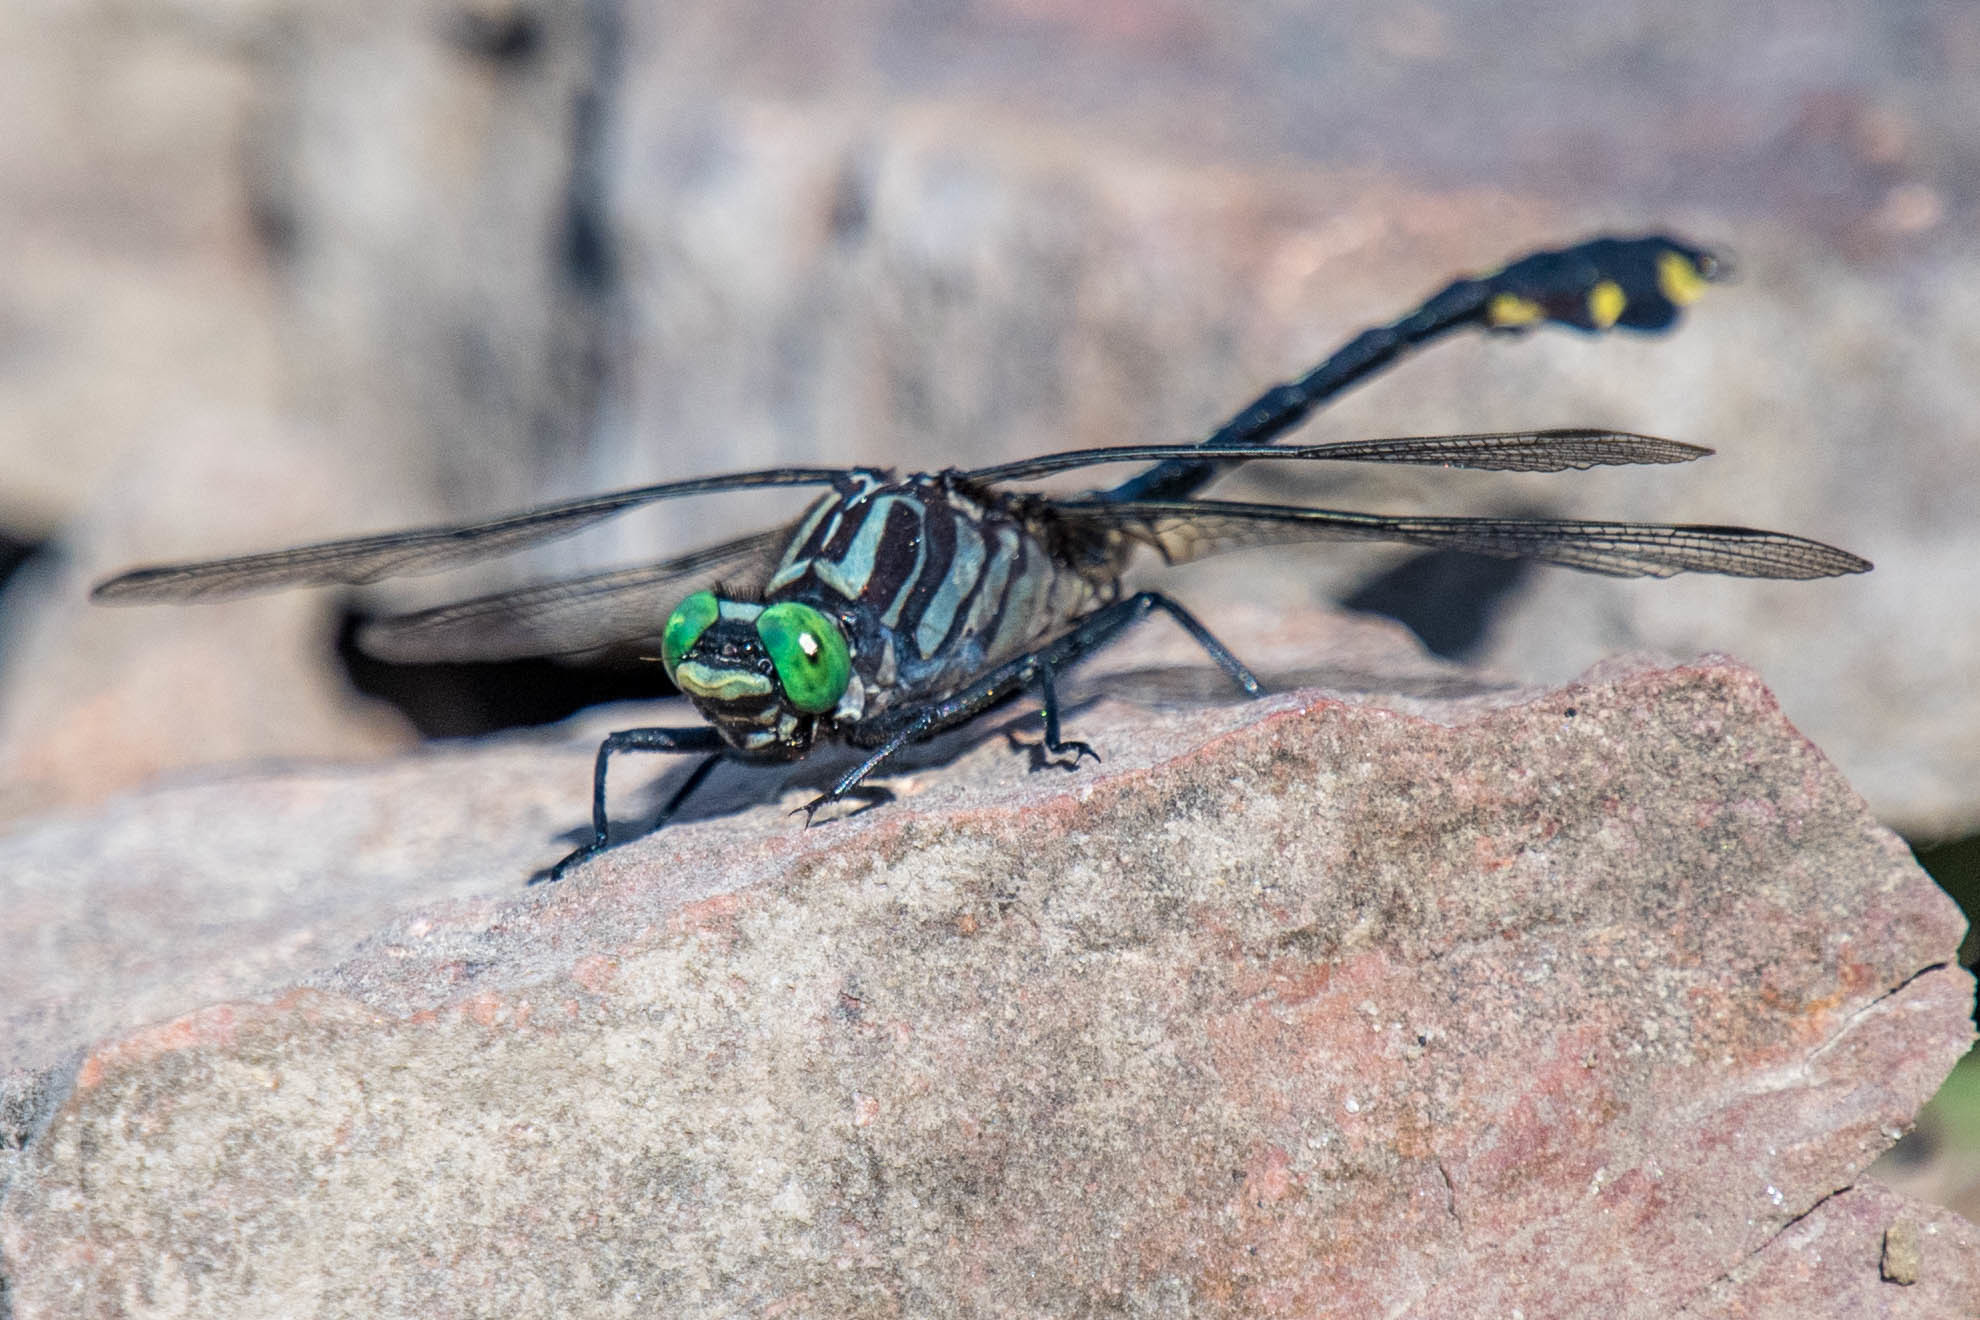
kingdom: Animalia
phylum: Arthropoda
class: Insecta
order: Odonata
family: Gomphidae
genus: Gomphurus
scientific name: Gomphurus vastus
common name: Cobra clubtail
